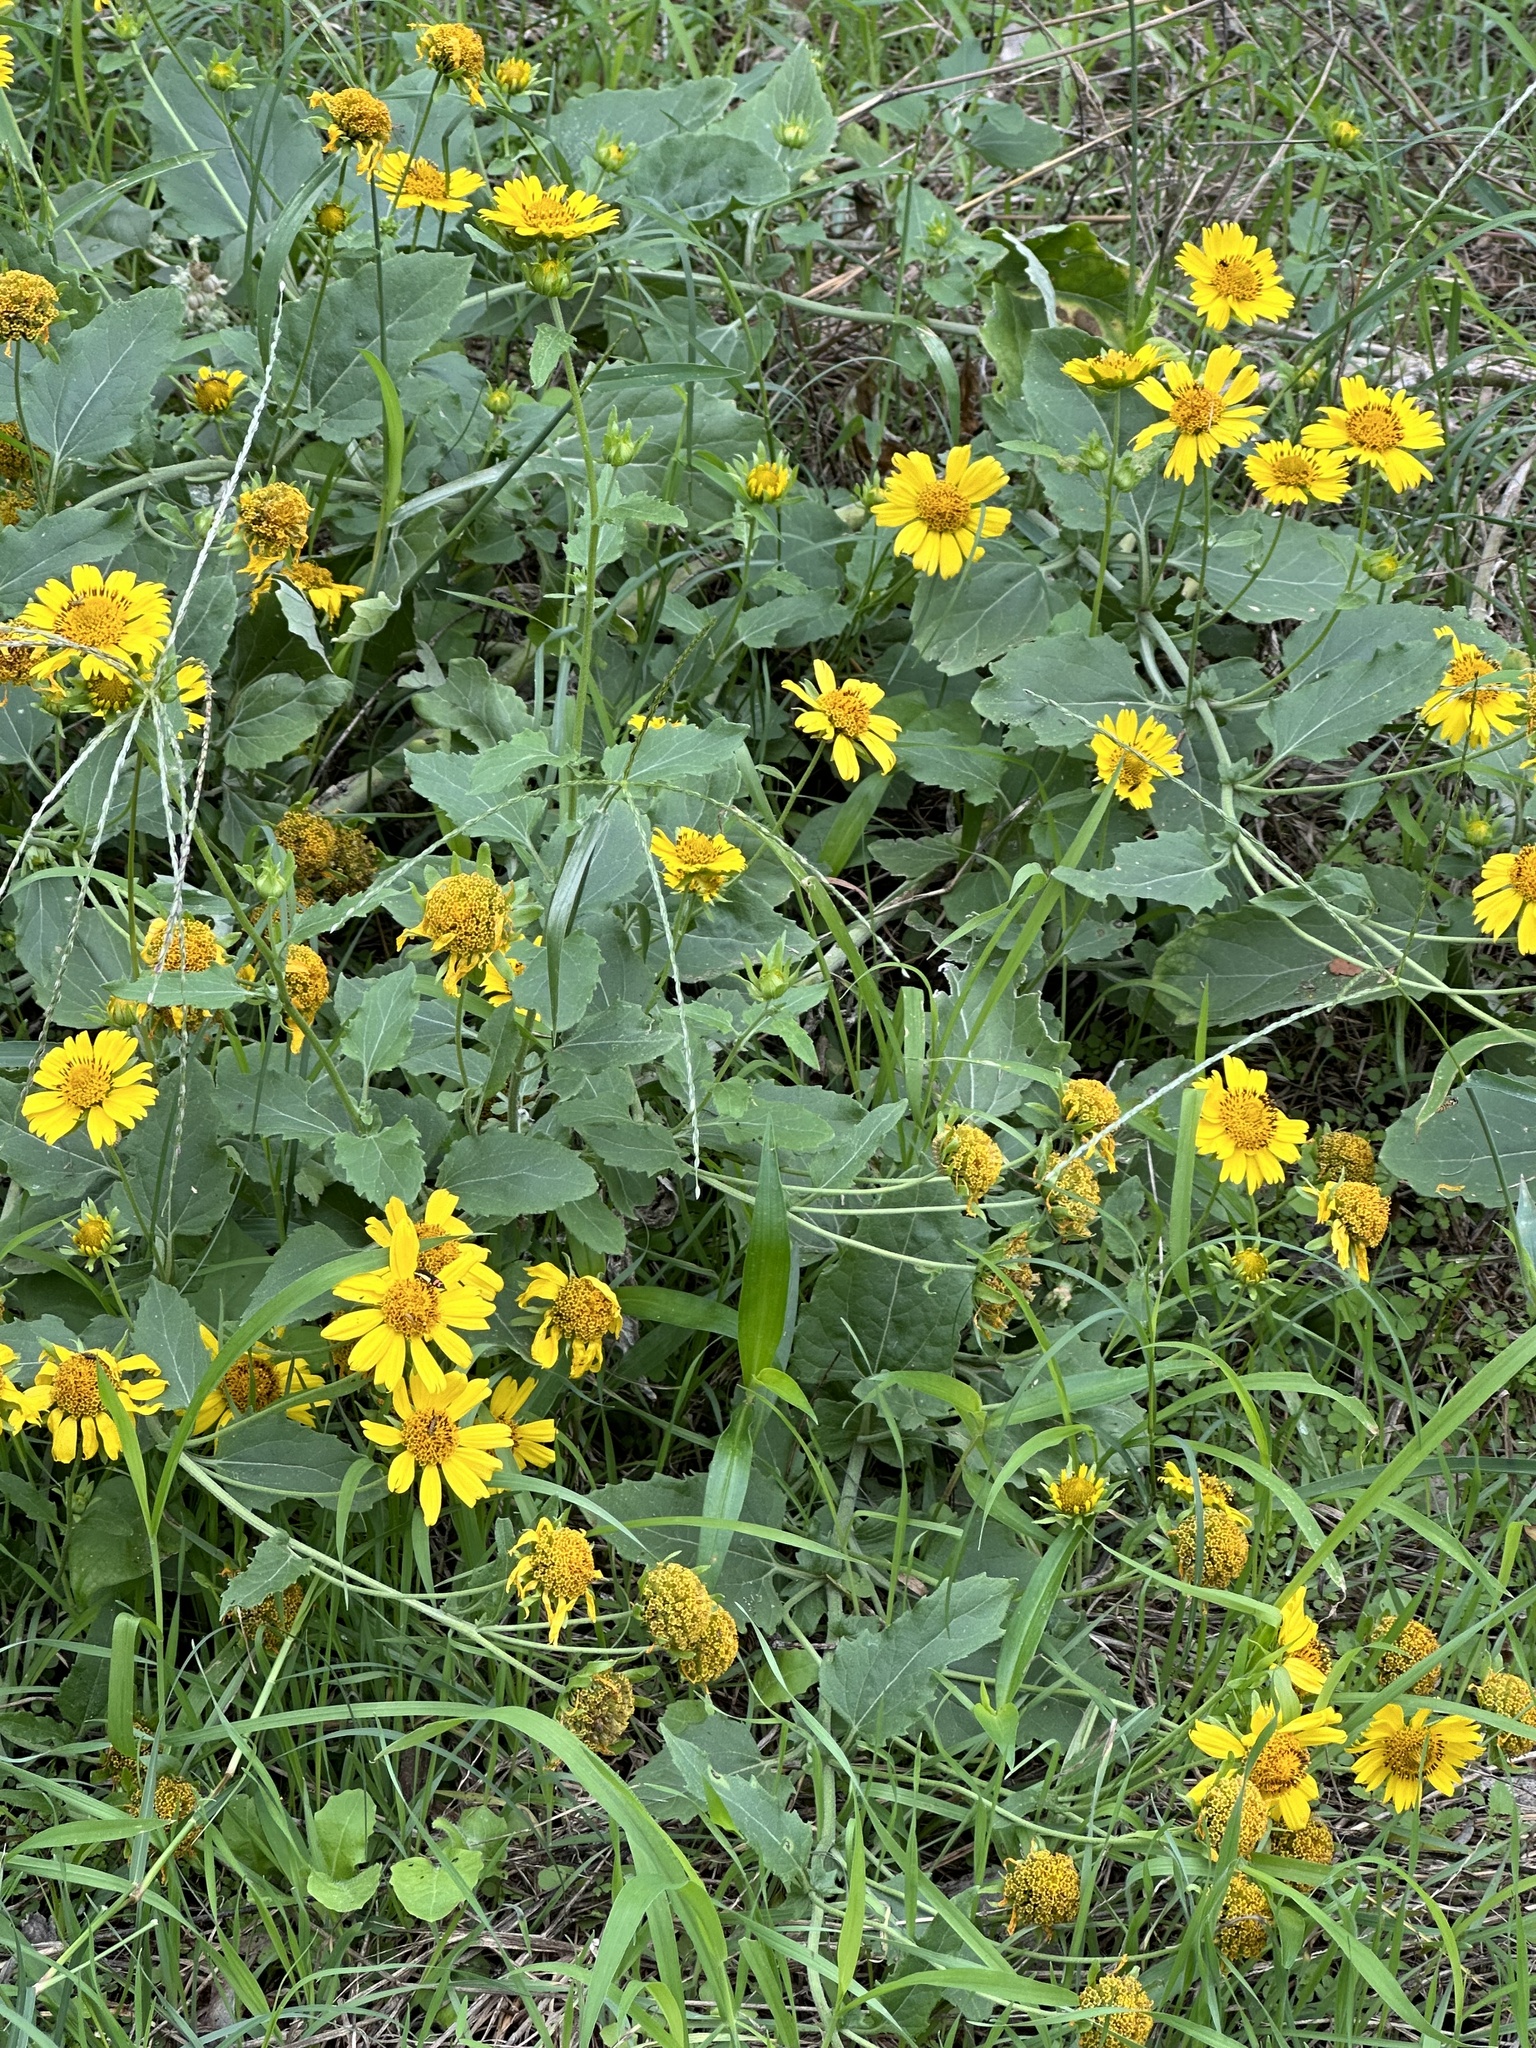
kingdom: Plantae
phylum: Tracheophyta
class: Magnoliopsida
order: Asterales
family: Asteraceae
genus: Verbesina
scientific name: Verbesina encelioides
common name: Golden crownbeard
